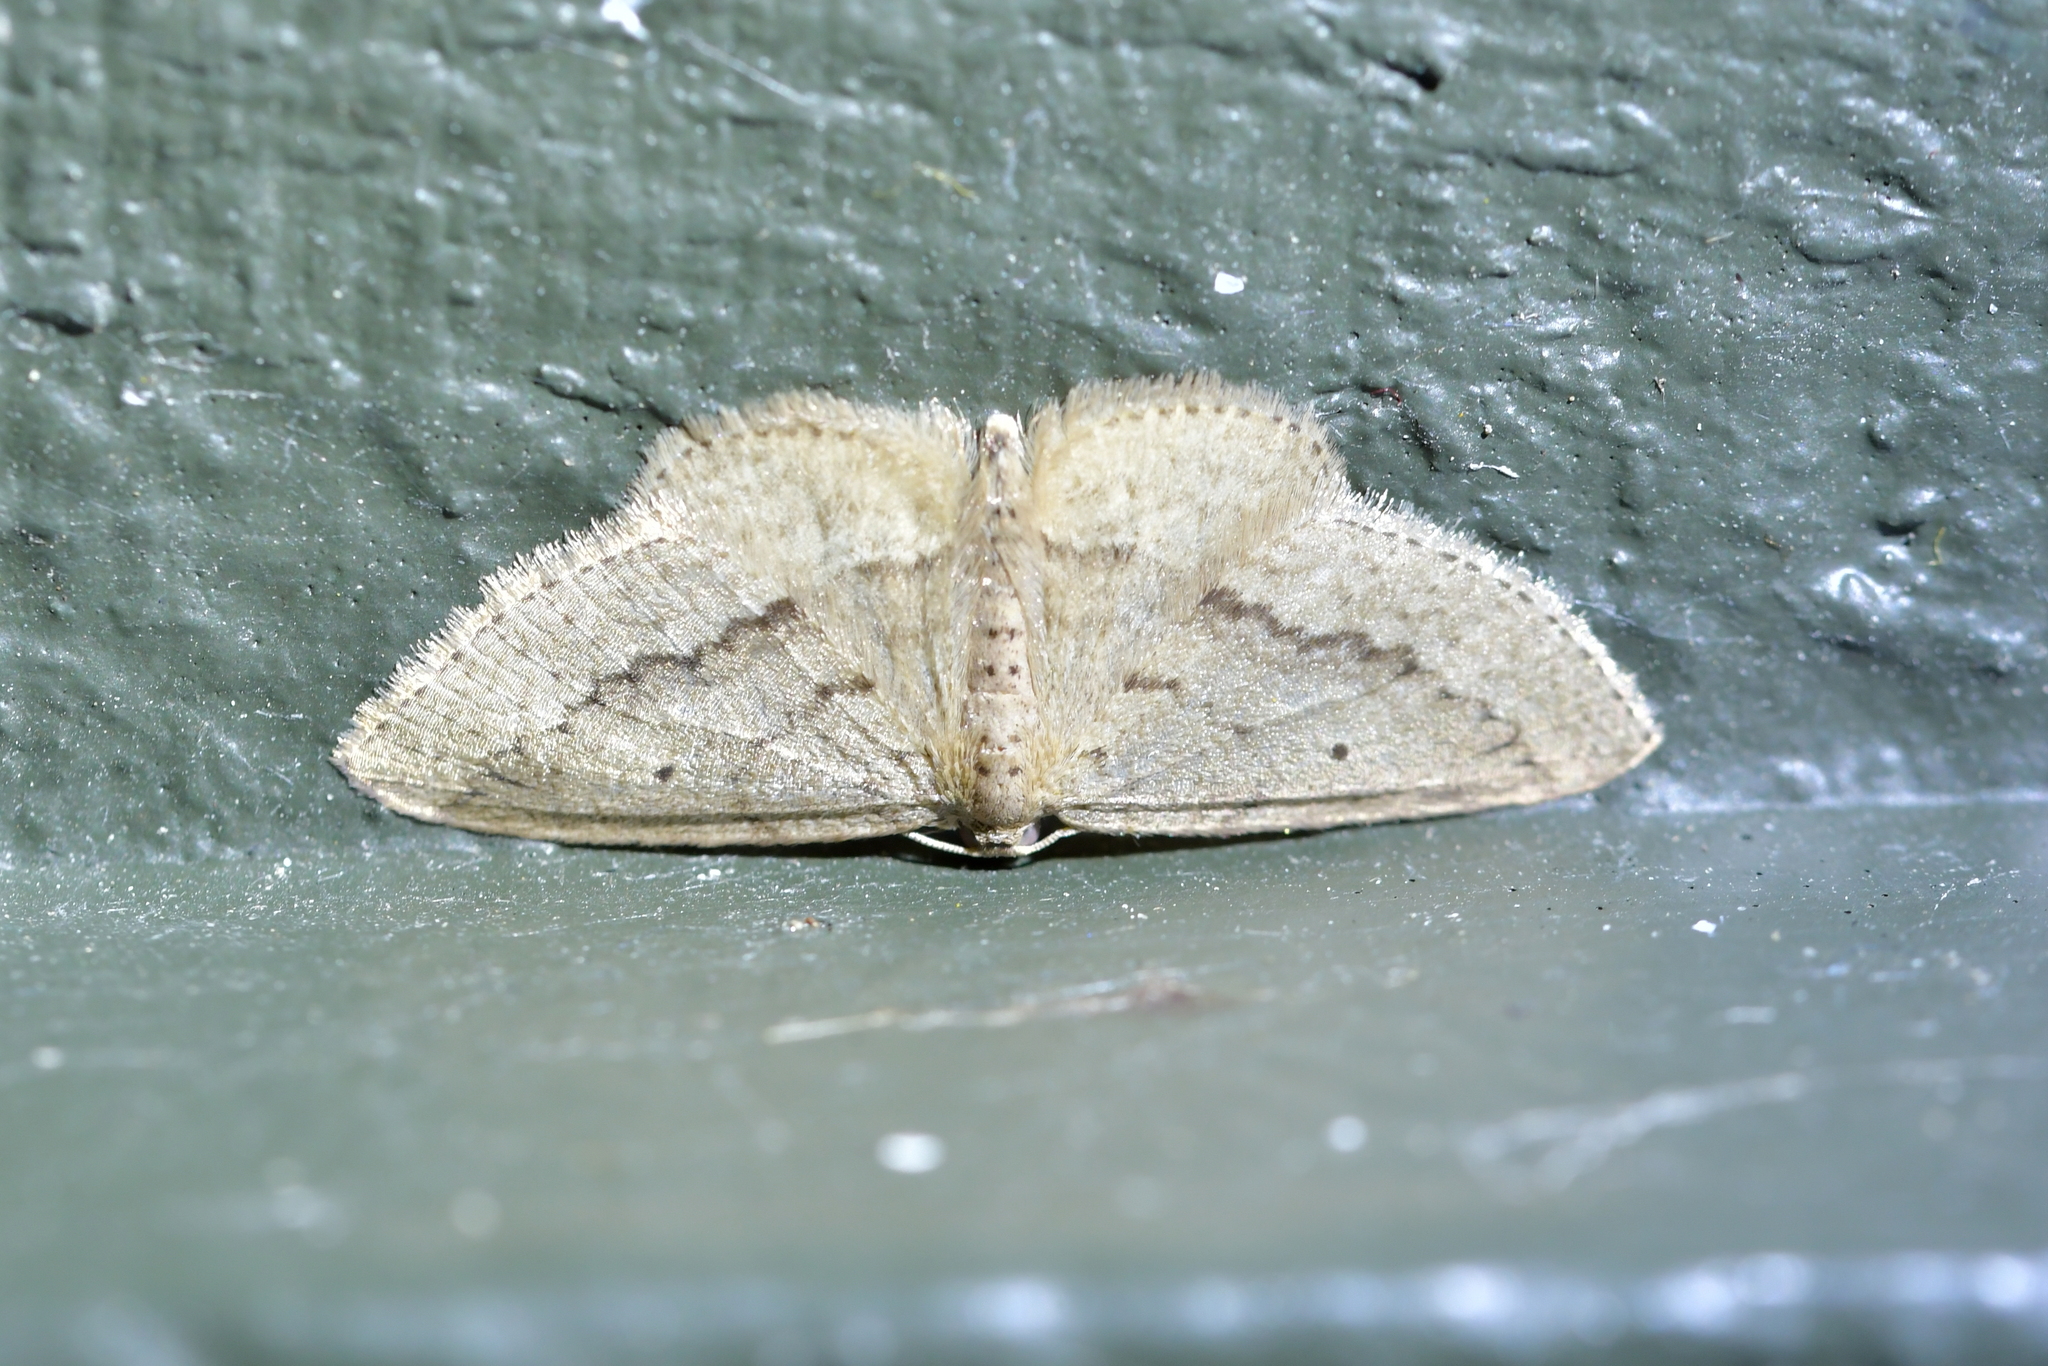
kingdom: Animalia
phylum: Arthropoda
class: Insecta
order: Lepidoptera
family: Geometridae
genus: Poecilasthena
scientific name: Poecilasthena schistaria
